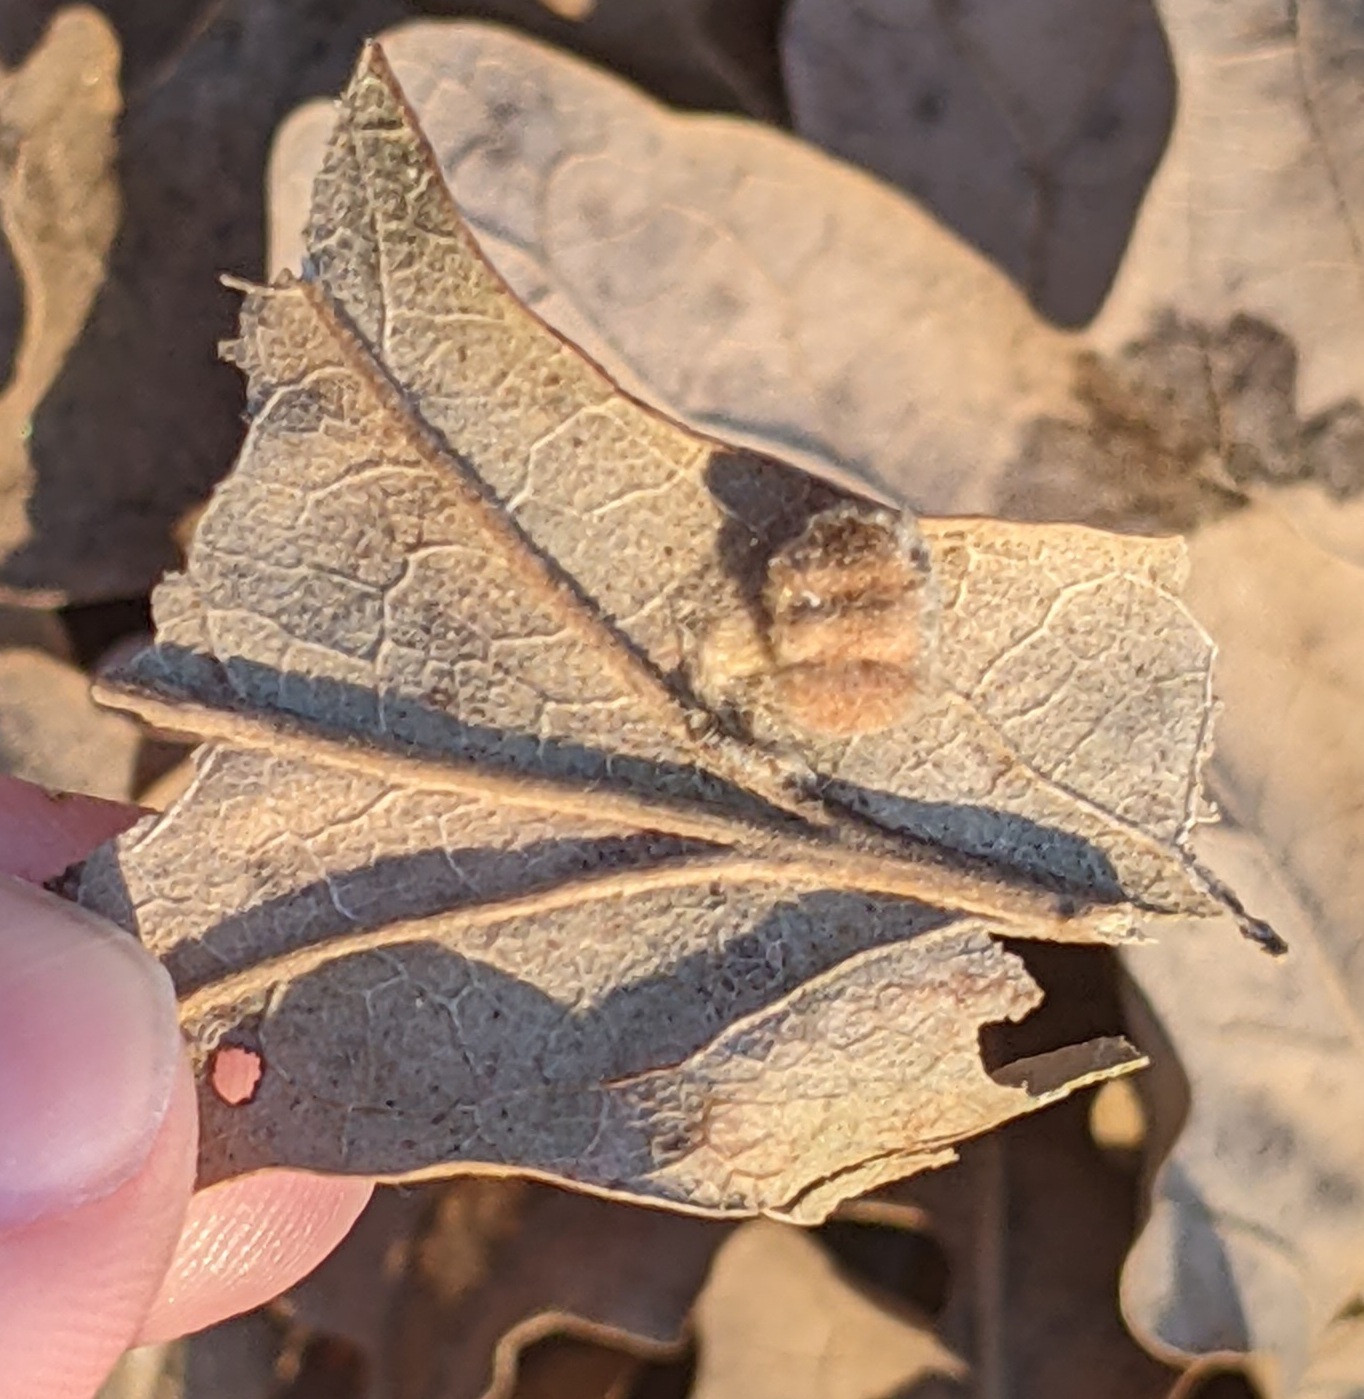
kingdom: Animalia
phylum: Arthropoda
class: Insecta
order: Hymenoptera
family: Cynipidae
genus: Andricus
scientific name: Andricus Druon pattoni
